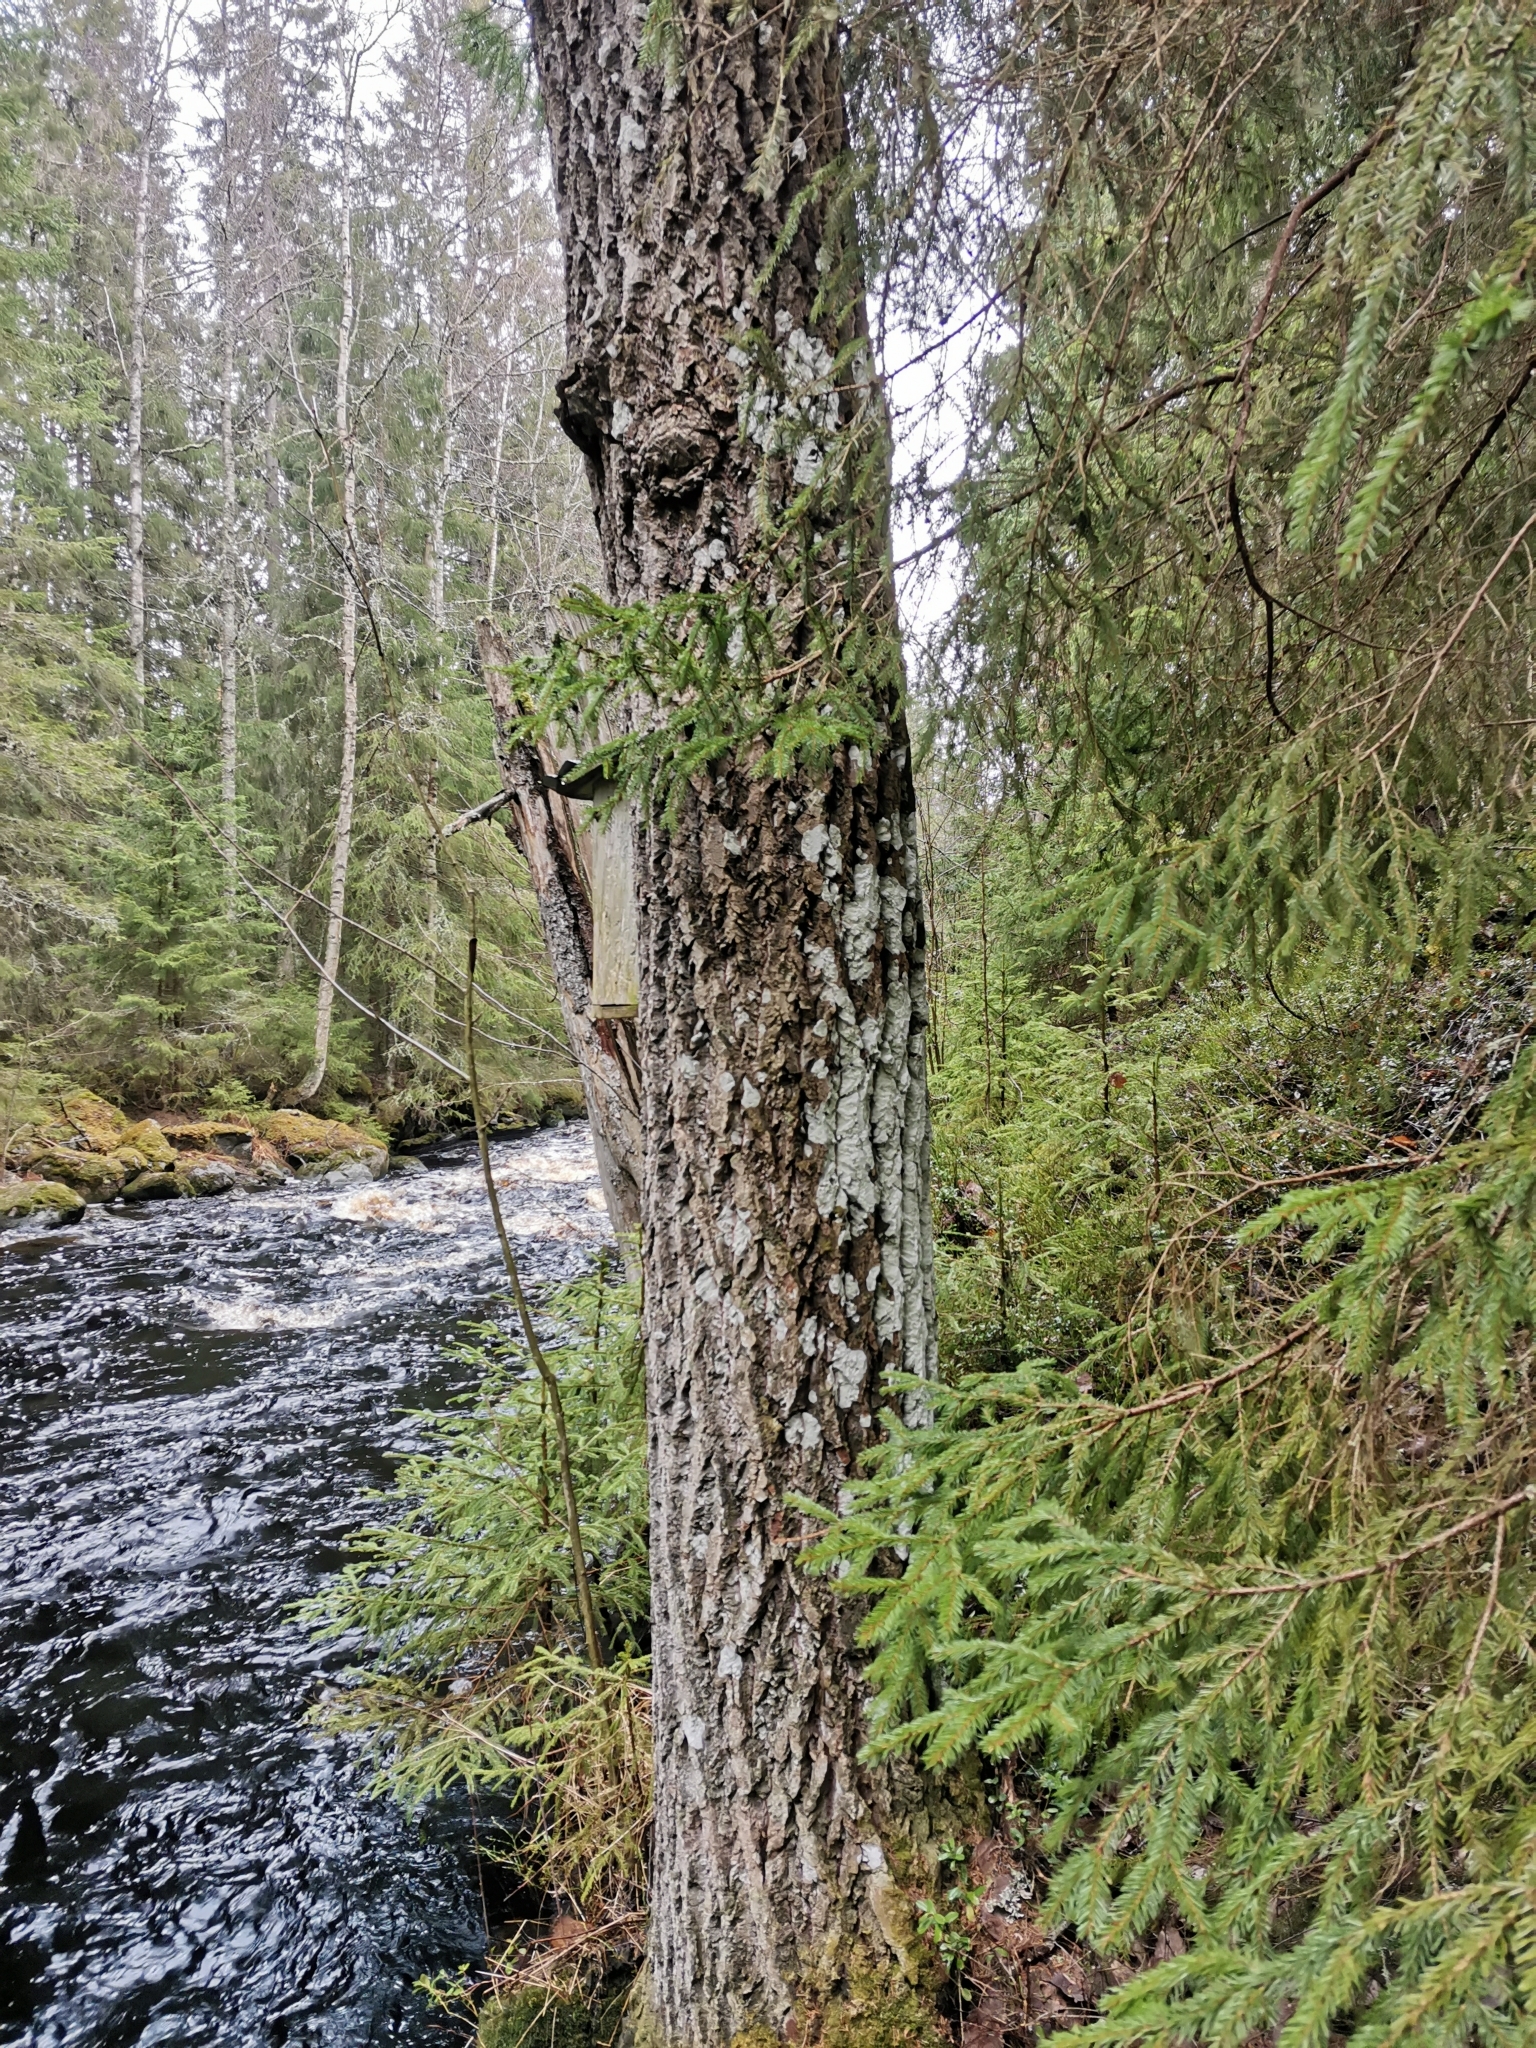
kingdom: Animalia
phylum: Chordata
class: Mammalia
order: Rodentia
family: Sciuridae
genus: Pteromys
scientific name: Pteromys volans
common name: Siberian flying squirrel
